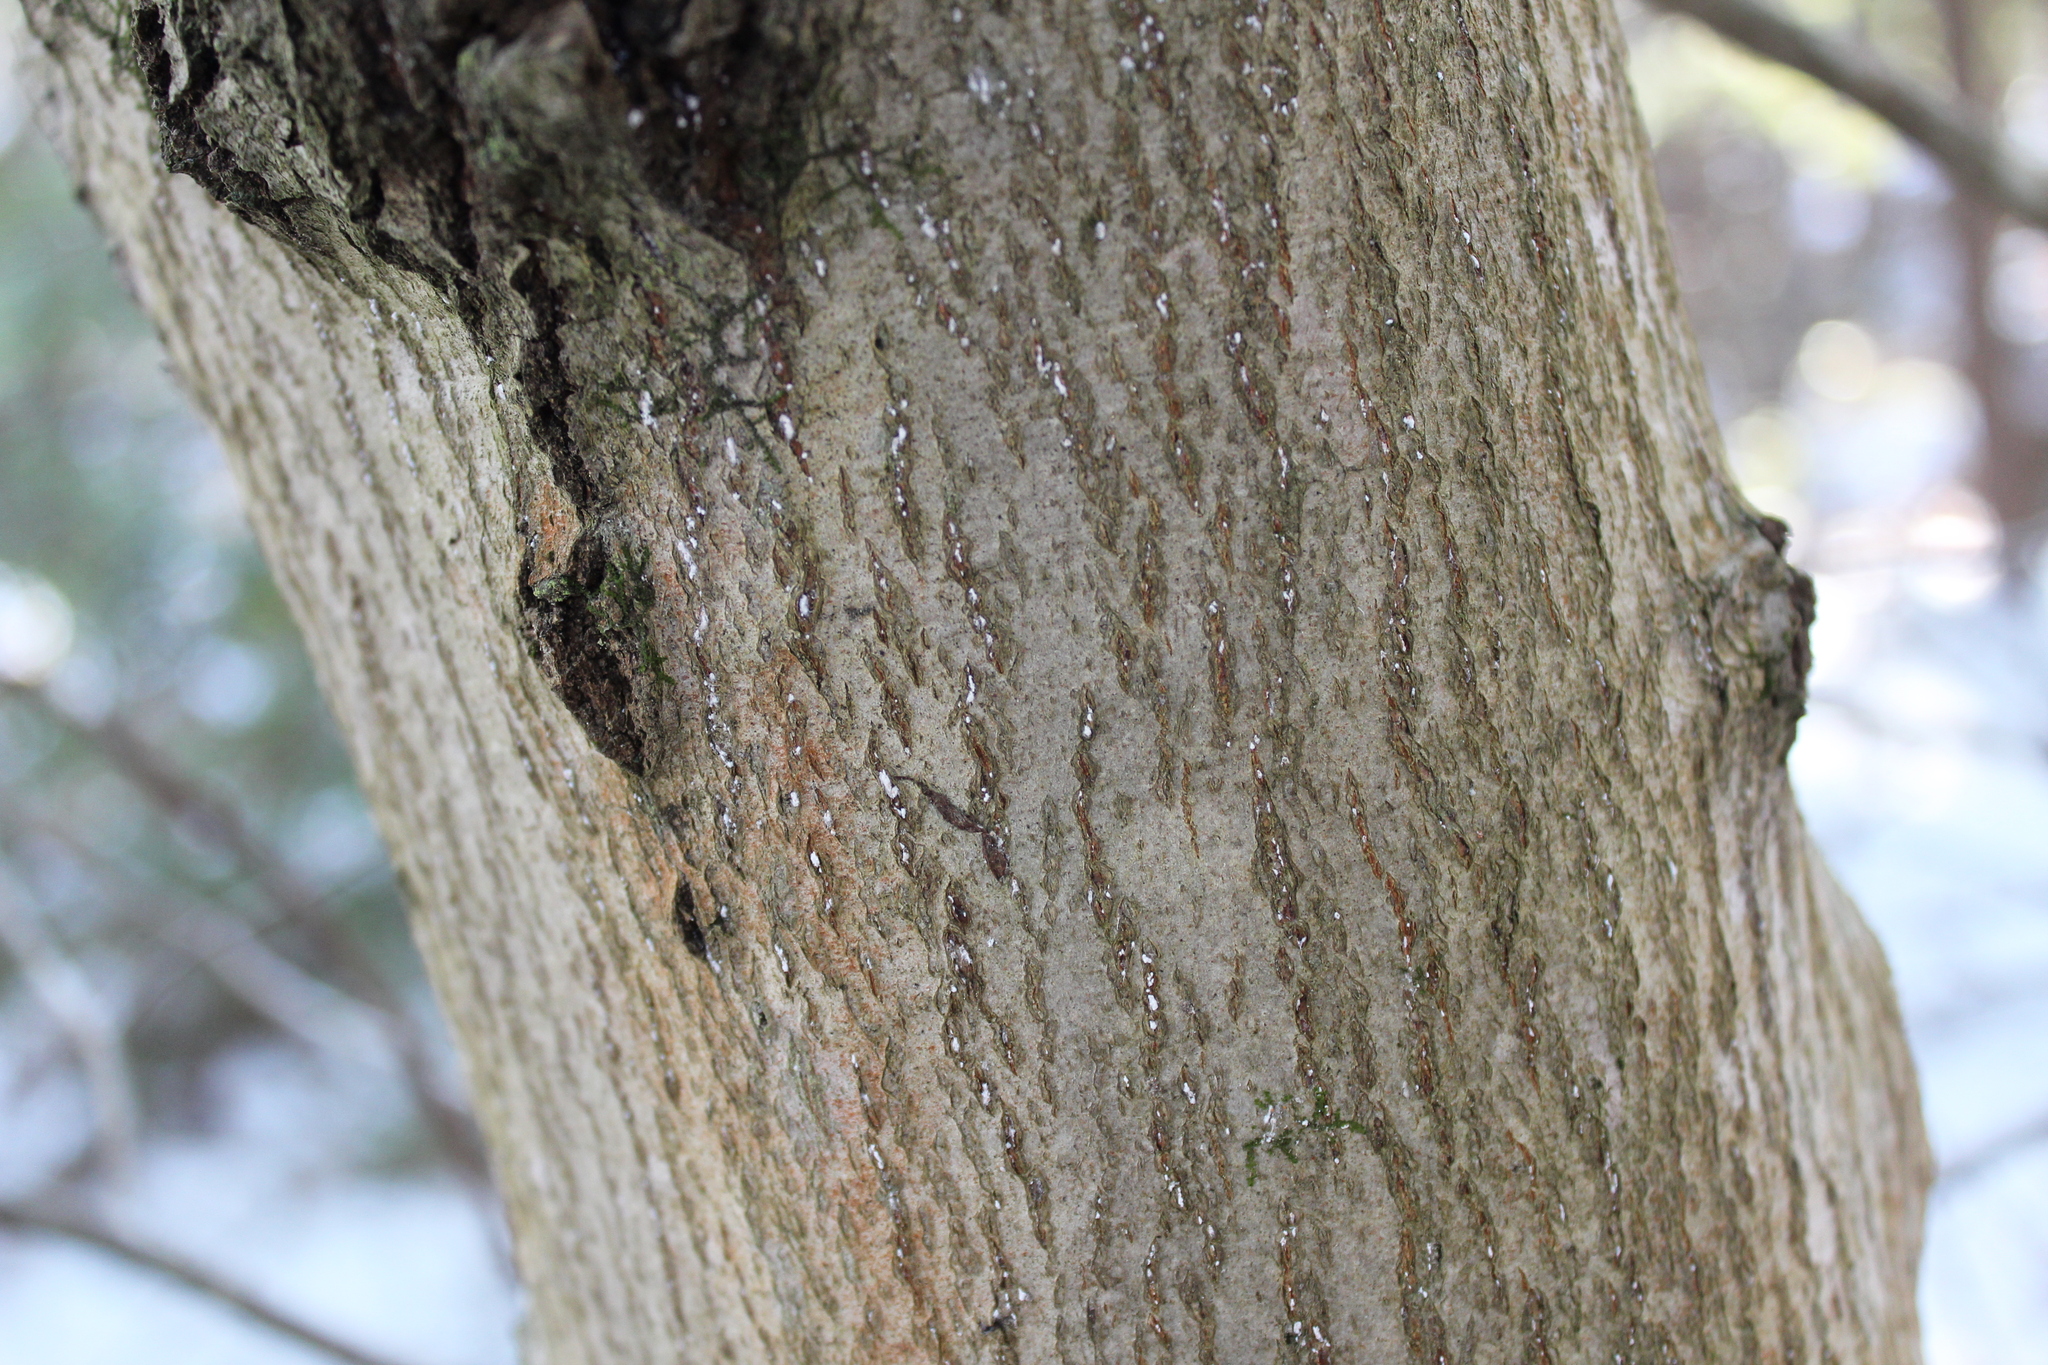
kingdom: Animalia
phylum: Arthropoda
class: Insecta
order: Hemiptera
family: Eriococcidae
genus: Cryptococcus
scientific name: Cryptococcus fagisuga
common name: Beech scale
